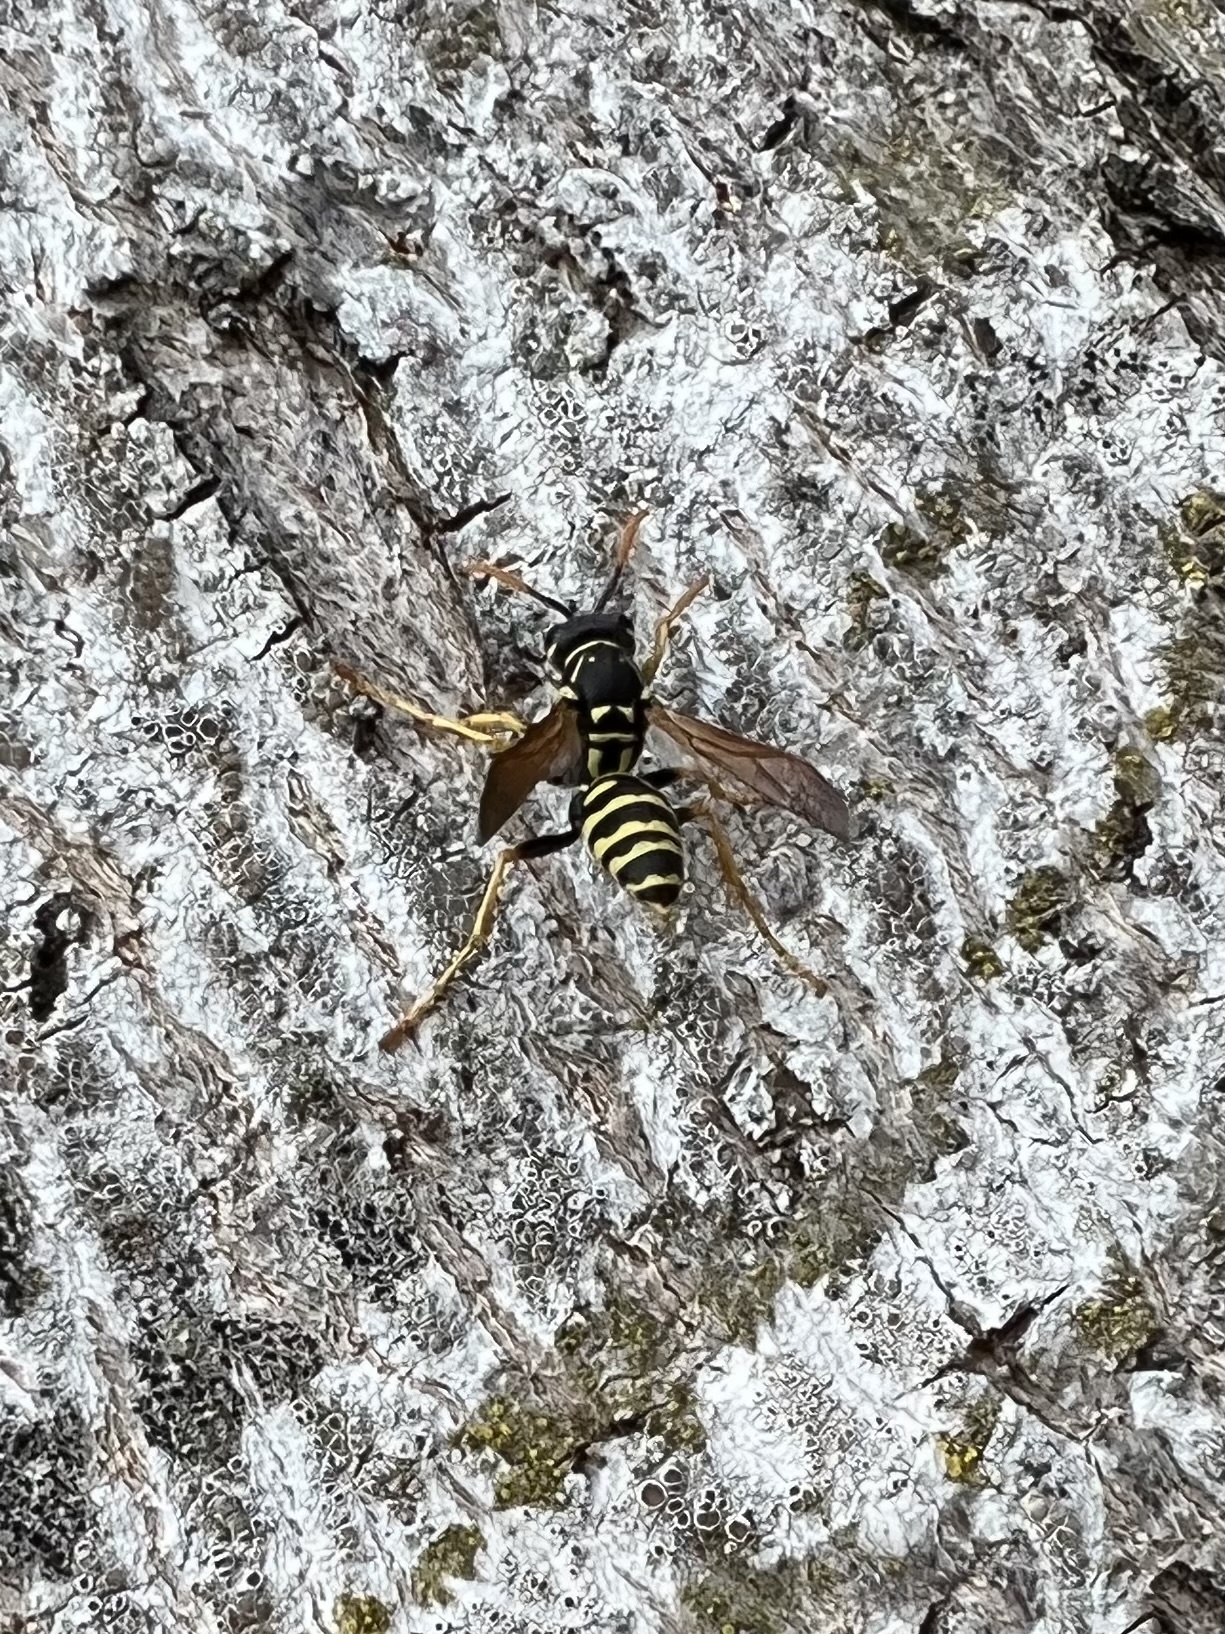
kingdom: Animalia
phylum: Arthropoda
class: Insecta
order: Hymenoptera
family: Eumenidae
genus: Polistes
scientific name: Polistes dominula
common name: Paper wasp
